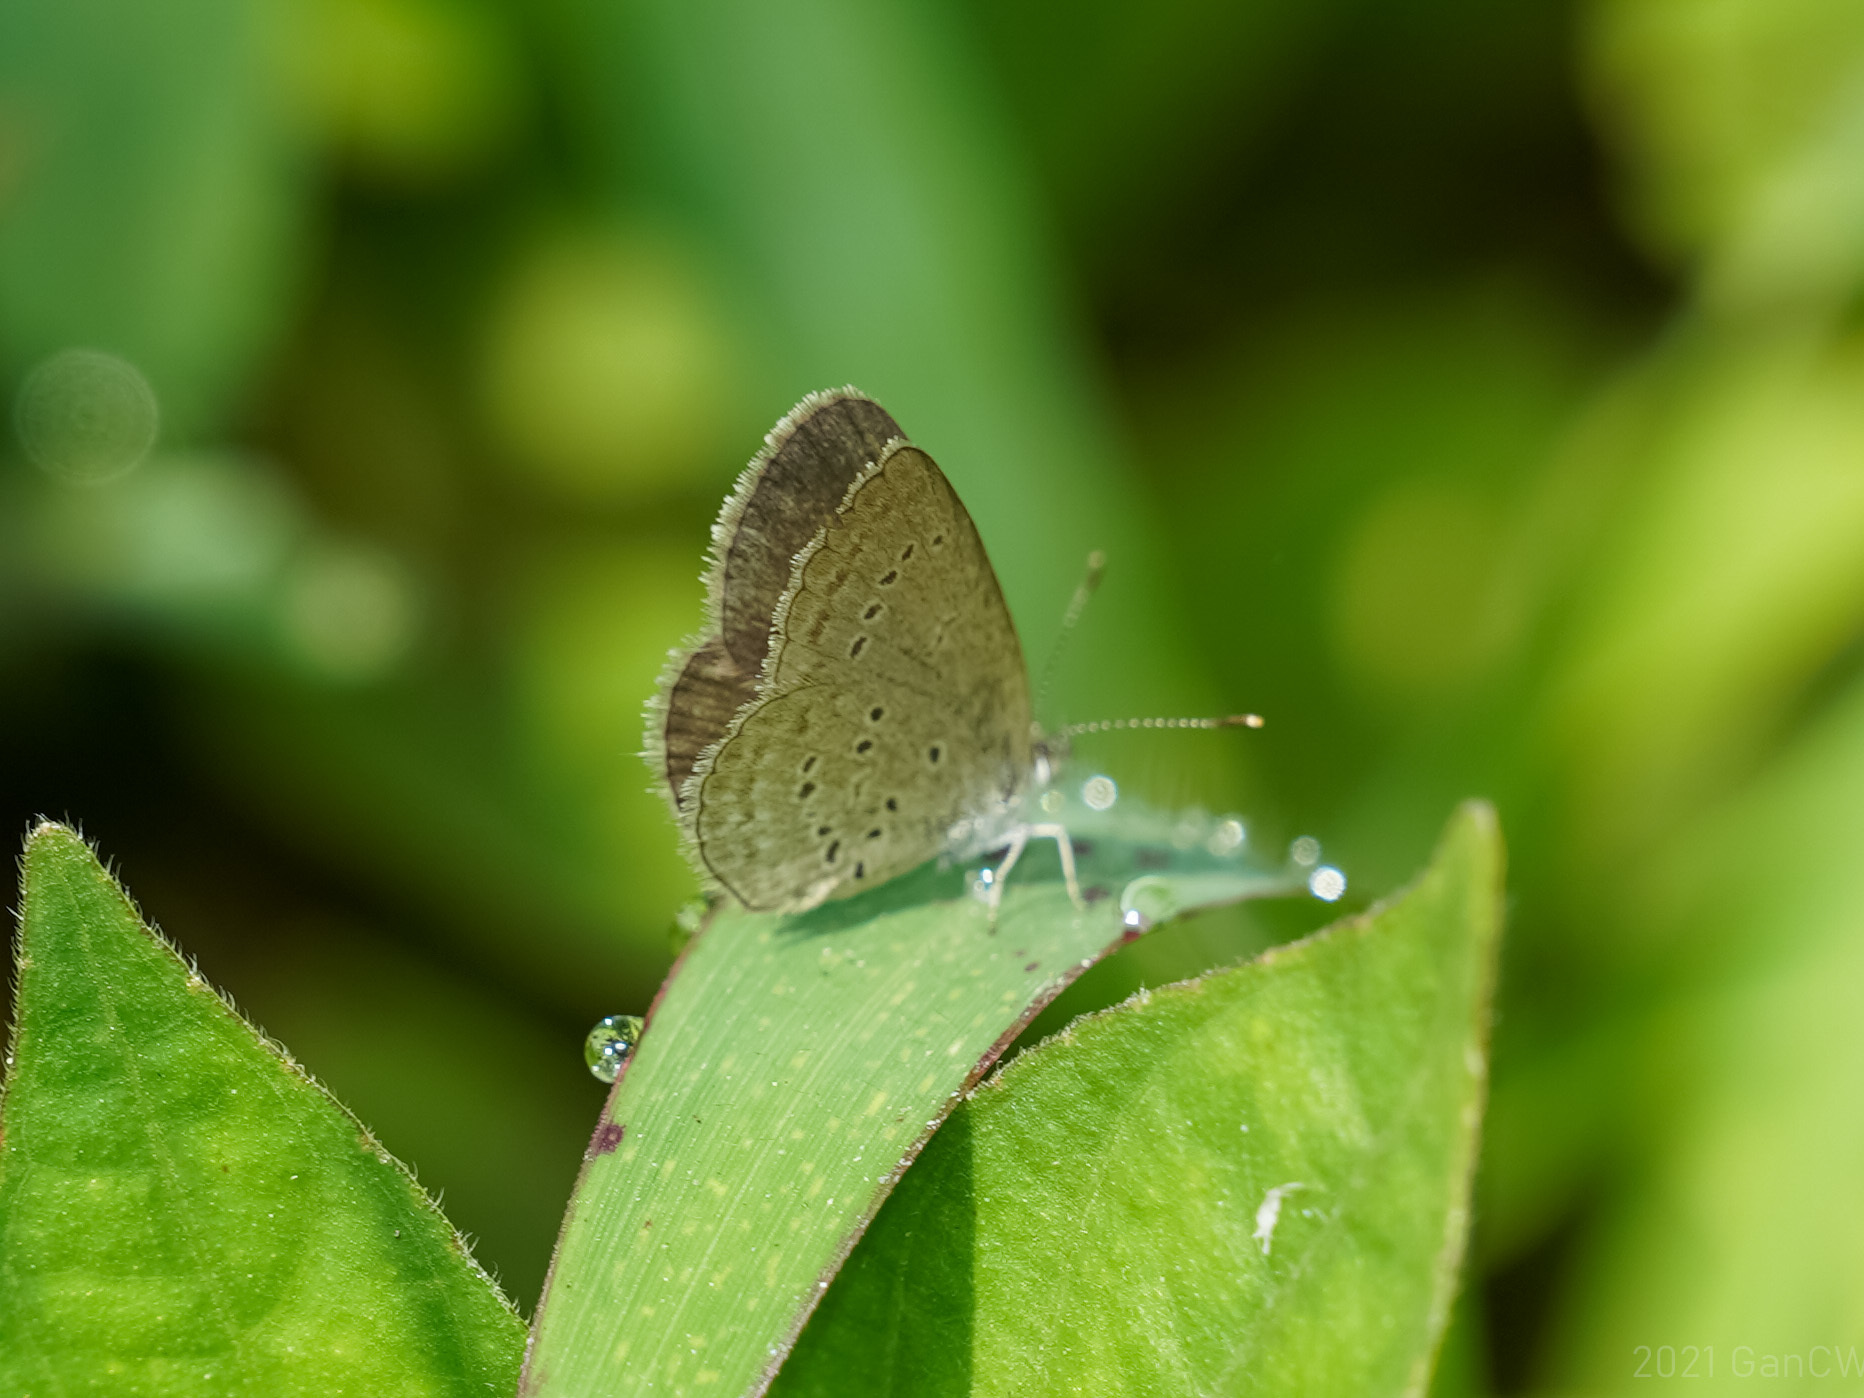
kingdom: Animalia
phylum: Arthropoda
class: Insecta
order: Lepidoptera
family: Lycaenidae
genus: Zizina
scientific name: Zizina otis
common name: Lesser grass blue
